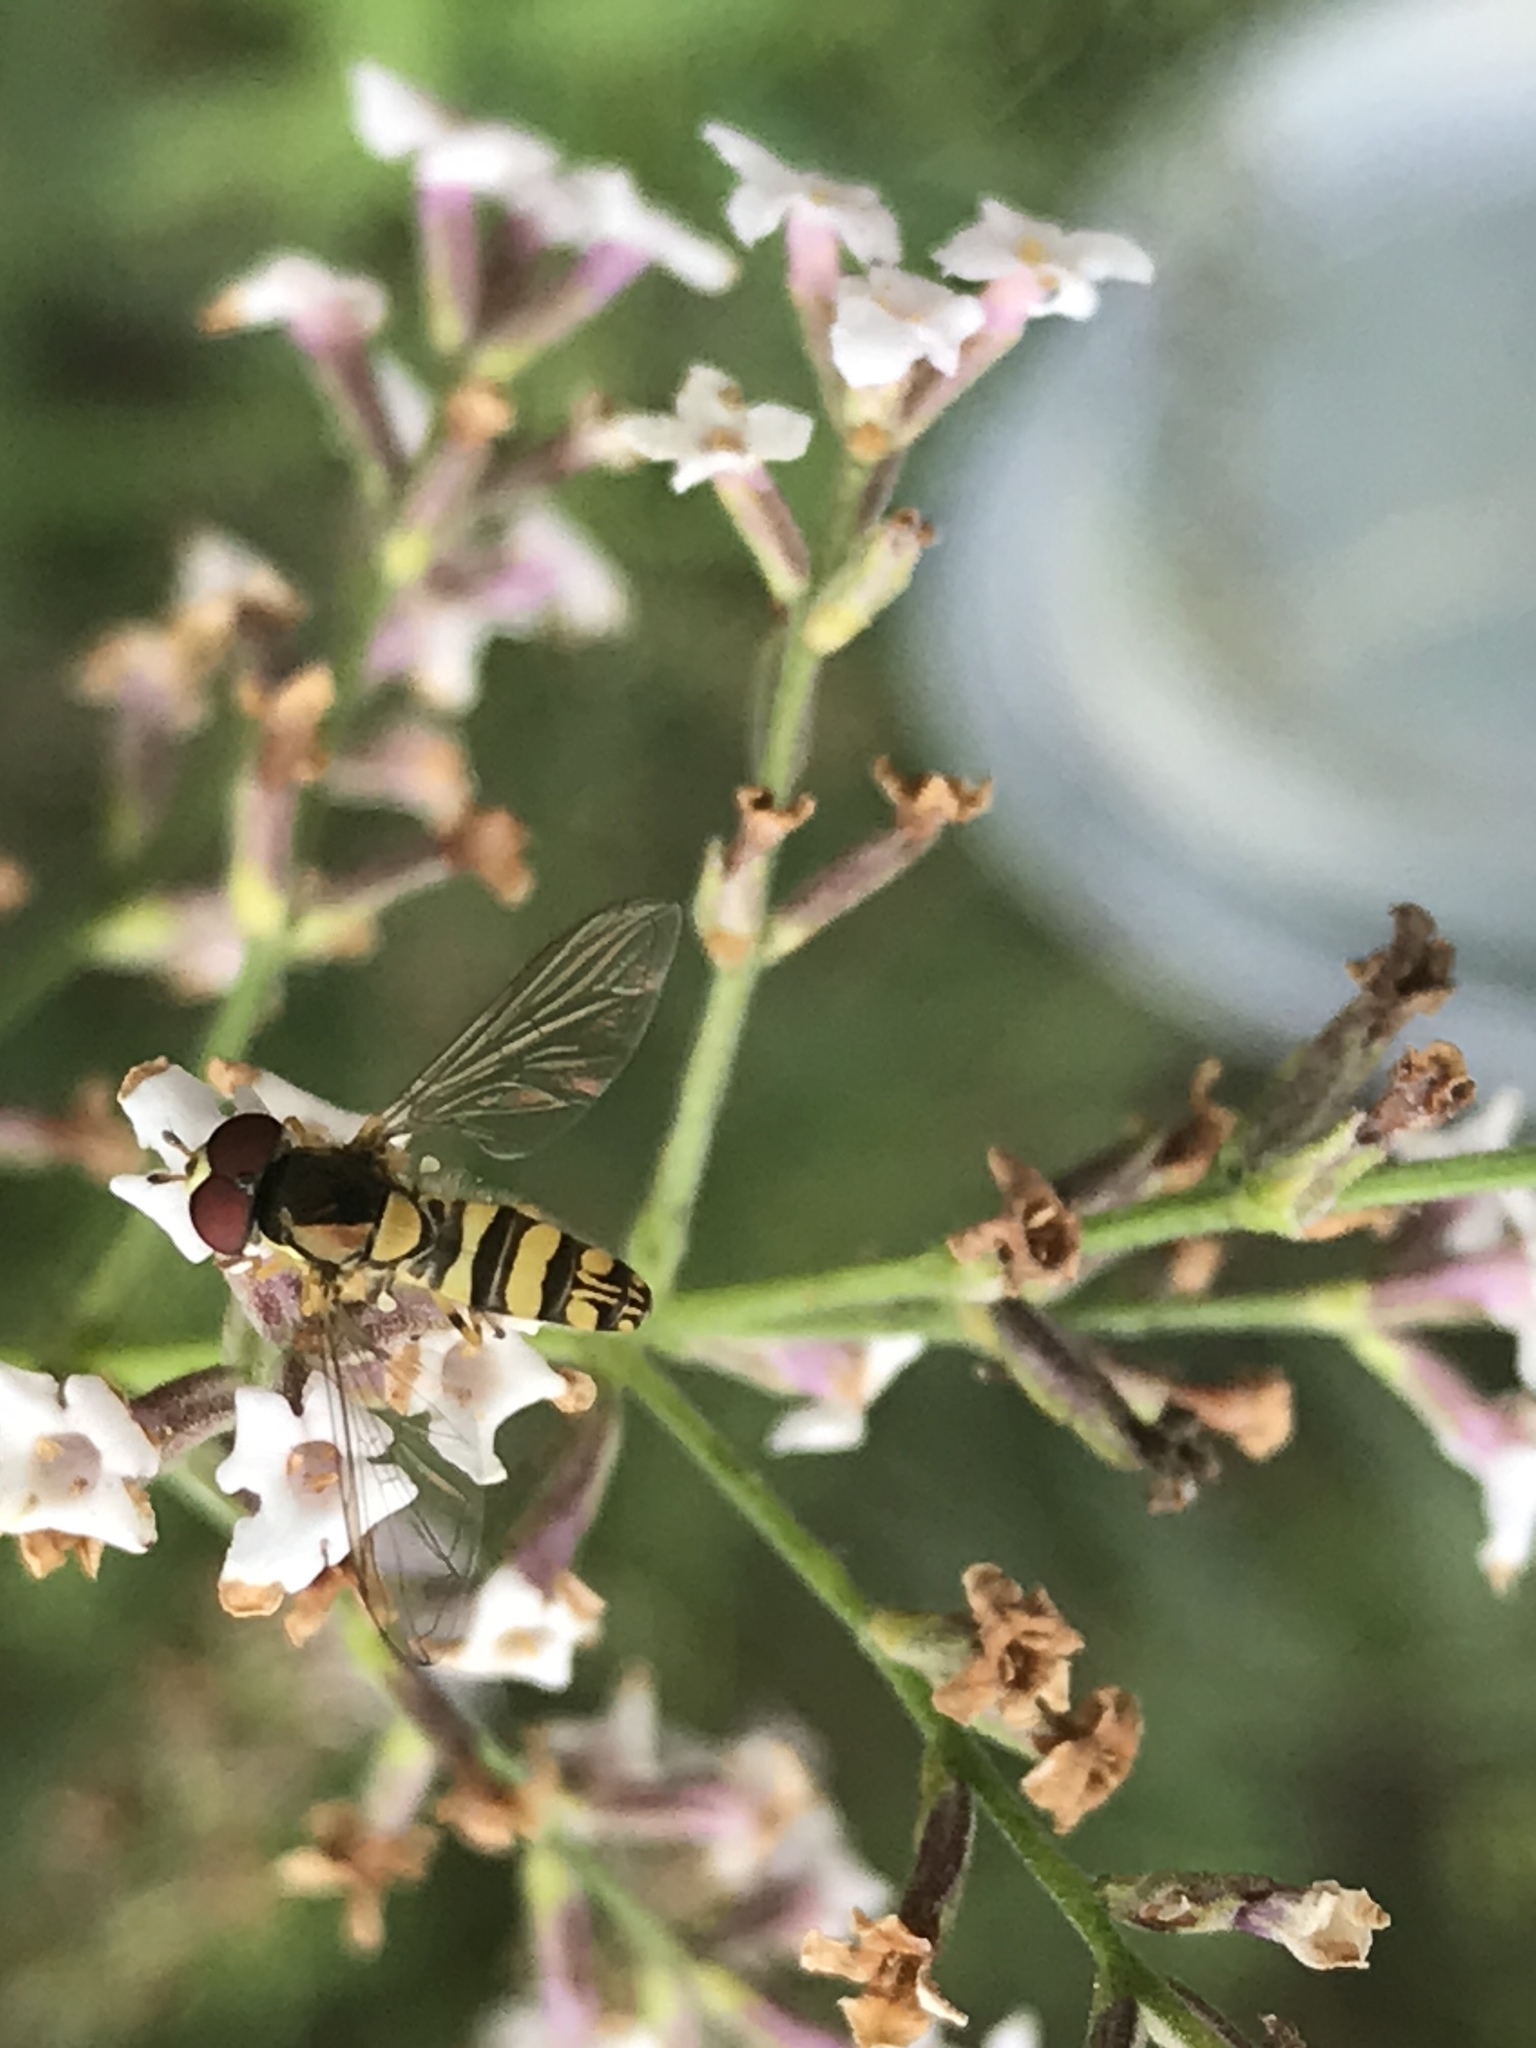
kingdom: Animalia
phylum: Arthropoda
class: Insecta
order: Diptera
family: Syrphidae
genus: Allograpta
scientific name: Allograpta exotica
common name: Syrphid fly
